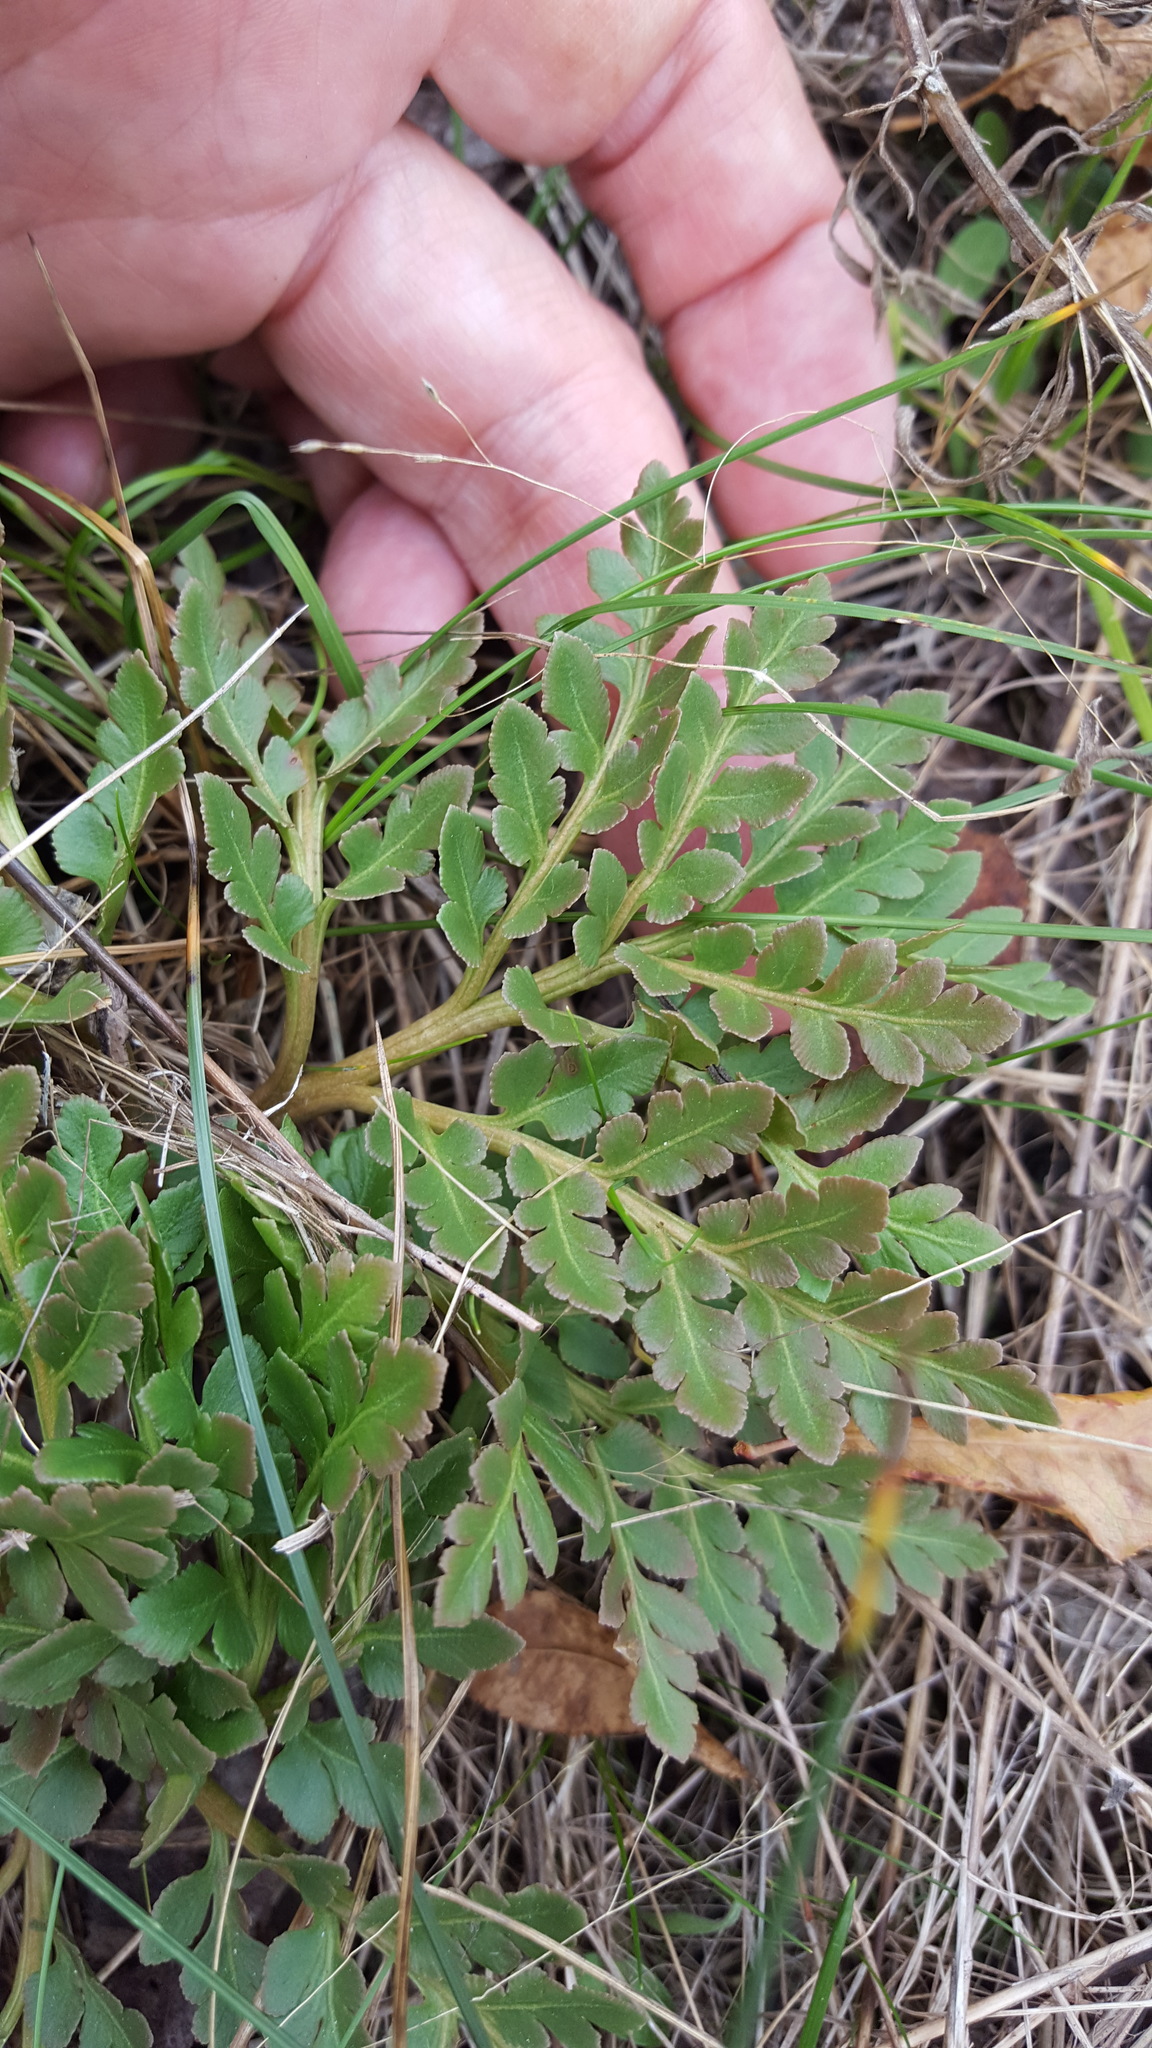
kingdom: Plantae
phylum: Tracheophyta
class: Polypodiopsida
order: Ophioglossales
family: Ophioglossaceae
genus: Sceptridium
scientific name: Sceptridium multifidum
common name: Leathery grape fern
